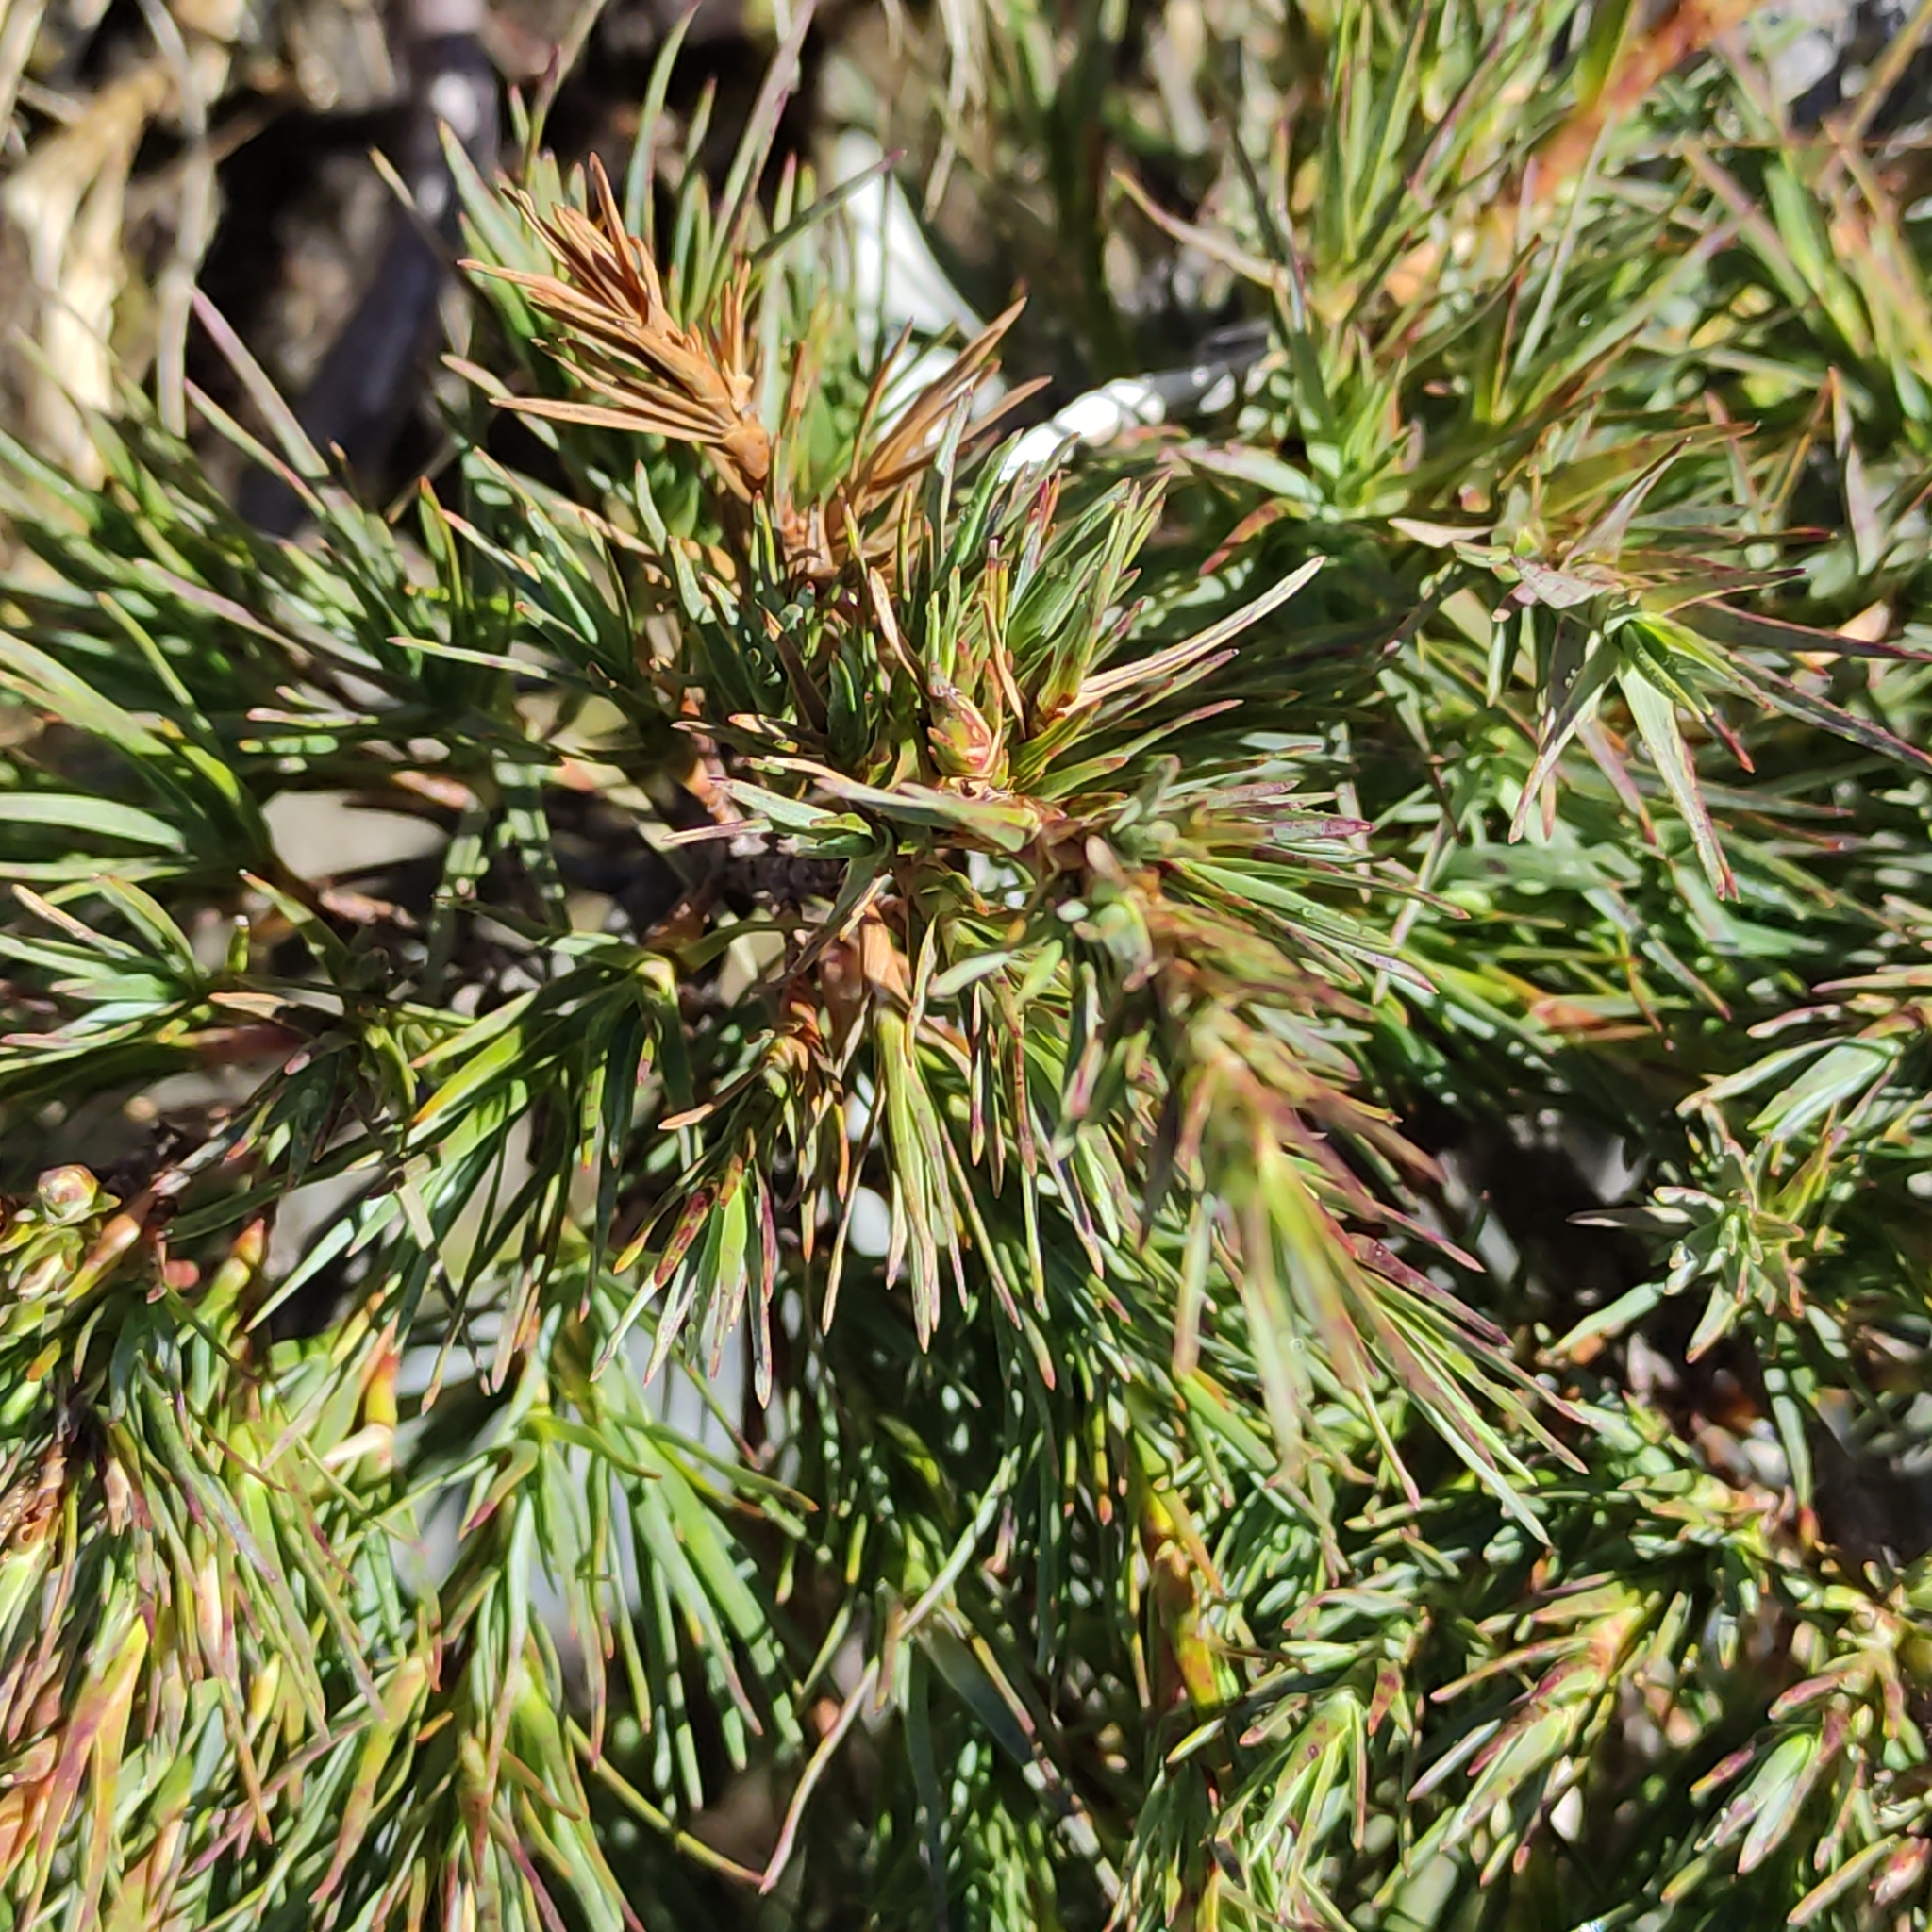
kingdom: Plantae
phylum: Tracheophyta
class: Magnoliopsida
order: Ericales
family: Ericaceae
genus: Dracophyllum
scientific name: Dracophyllum kirkii
